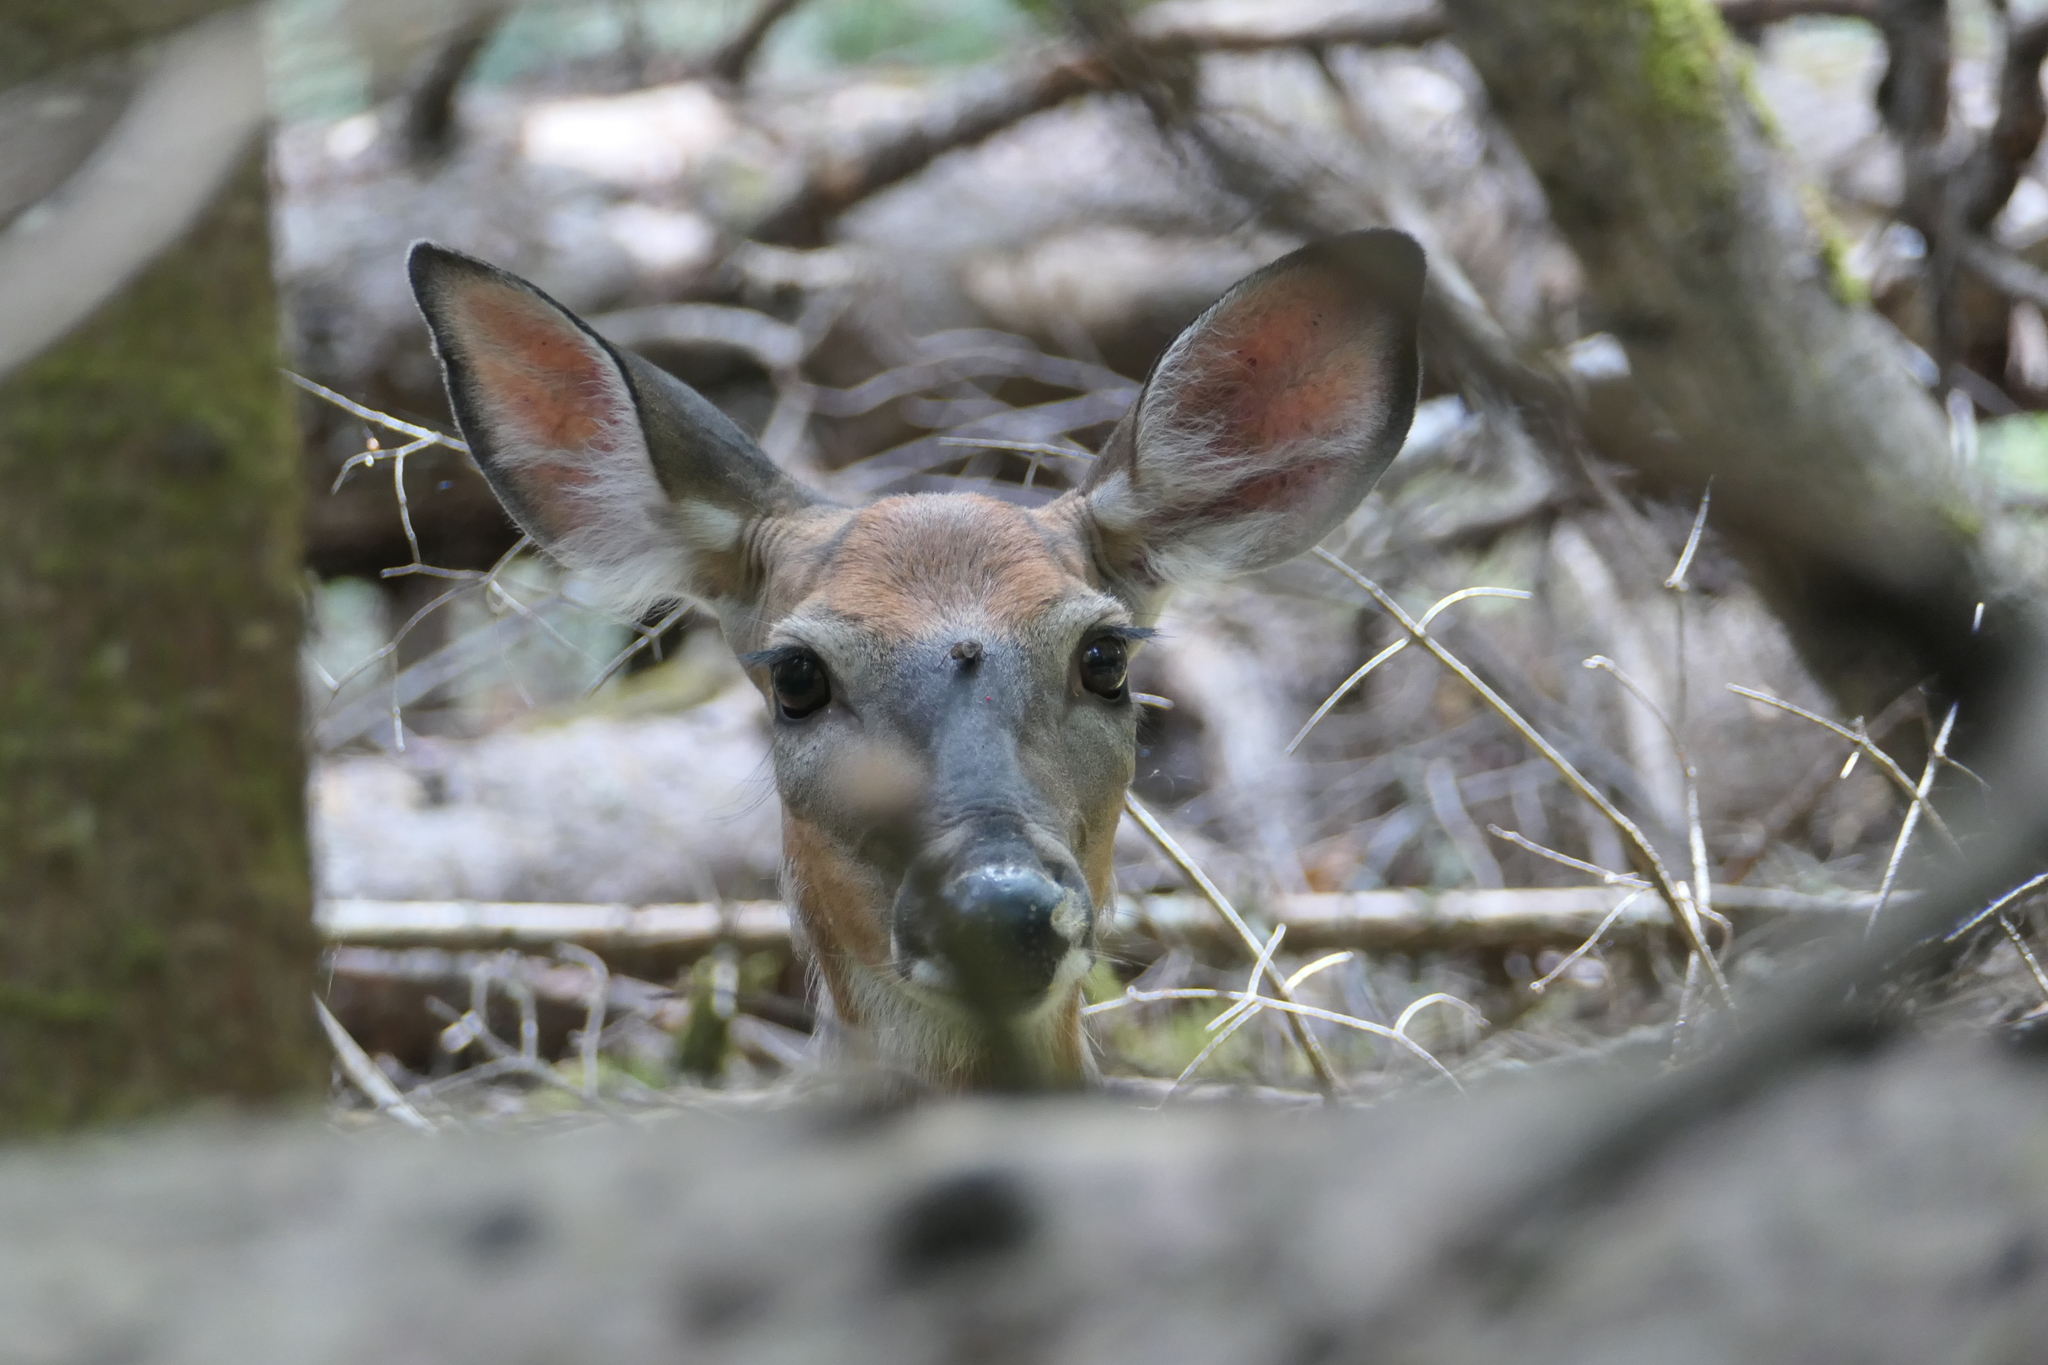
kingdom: Animalia
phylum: Chordata
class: Mammalia
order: Artiodactyla
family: Cervidae
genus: Odocoileus
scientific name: Odocoileus virginianus
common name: White-tailed deer
